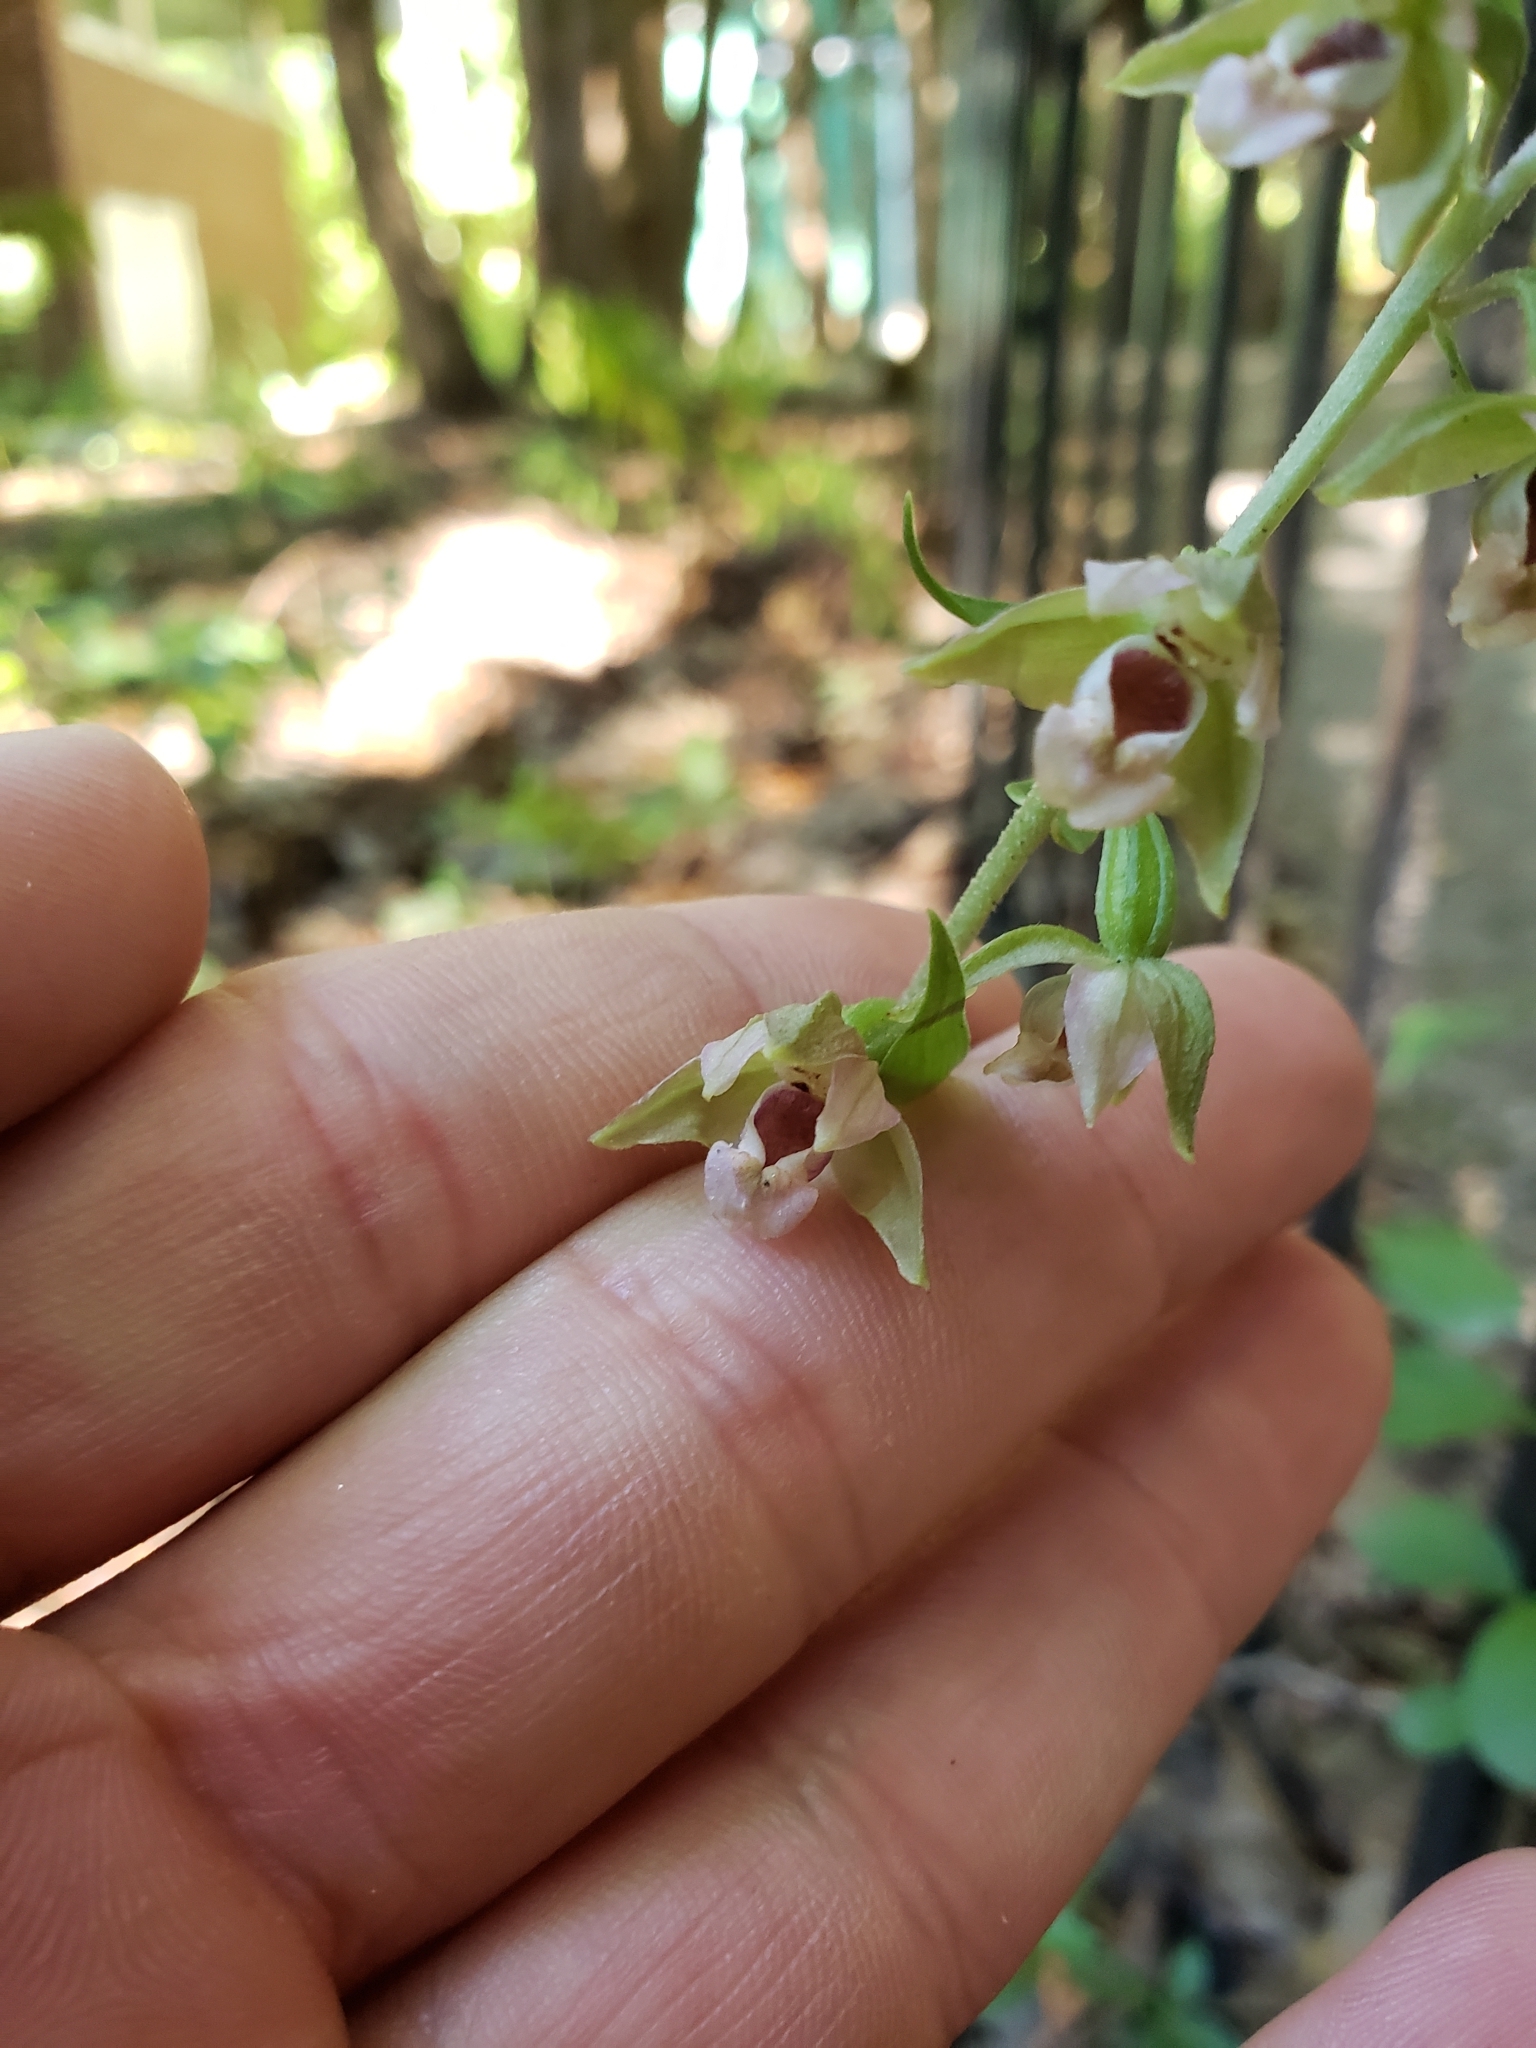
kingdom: Plantae
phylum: Tracheophyta
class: Liliopsida
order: Asparagales
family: Orchidaceae
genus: Epipactis
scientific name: Epipactis helleborine
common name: Broad-leaved helleborine
